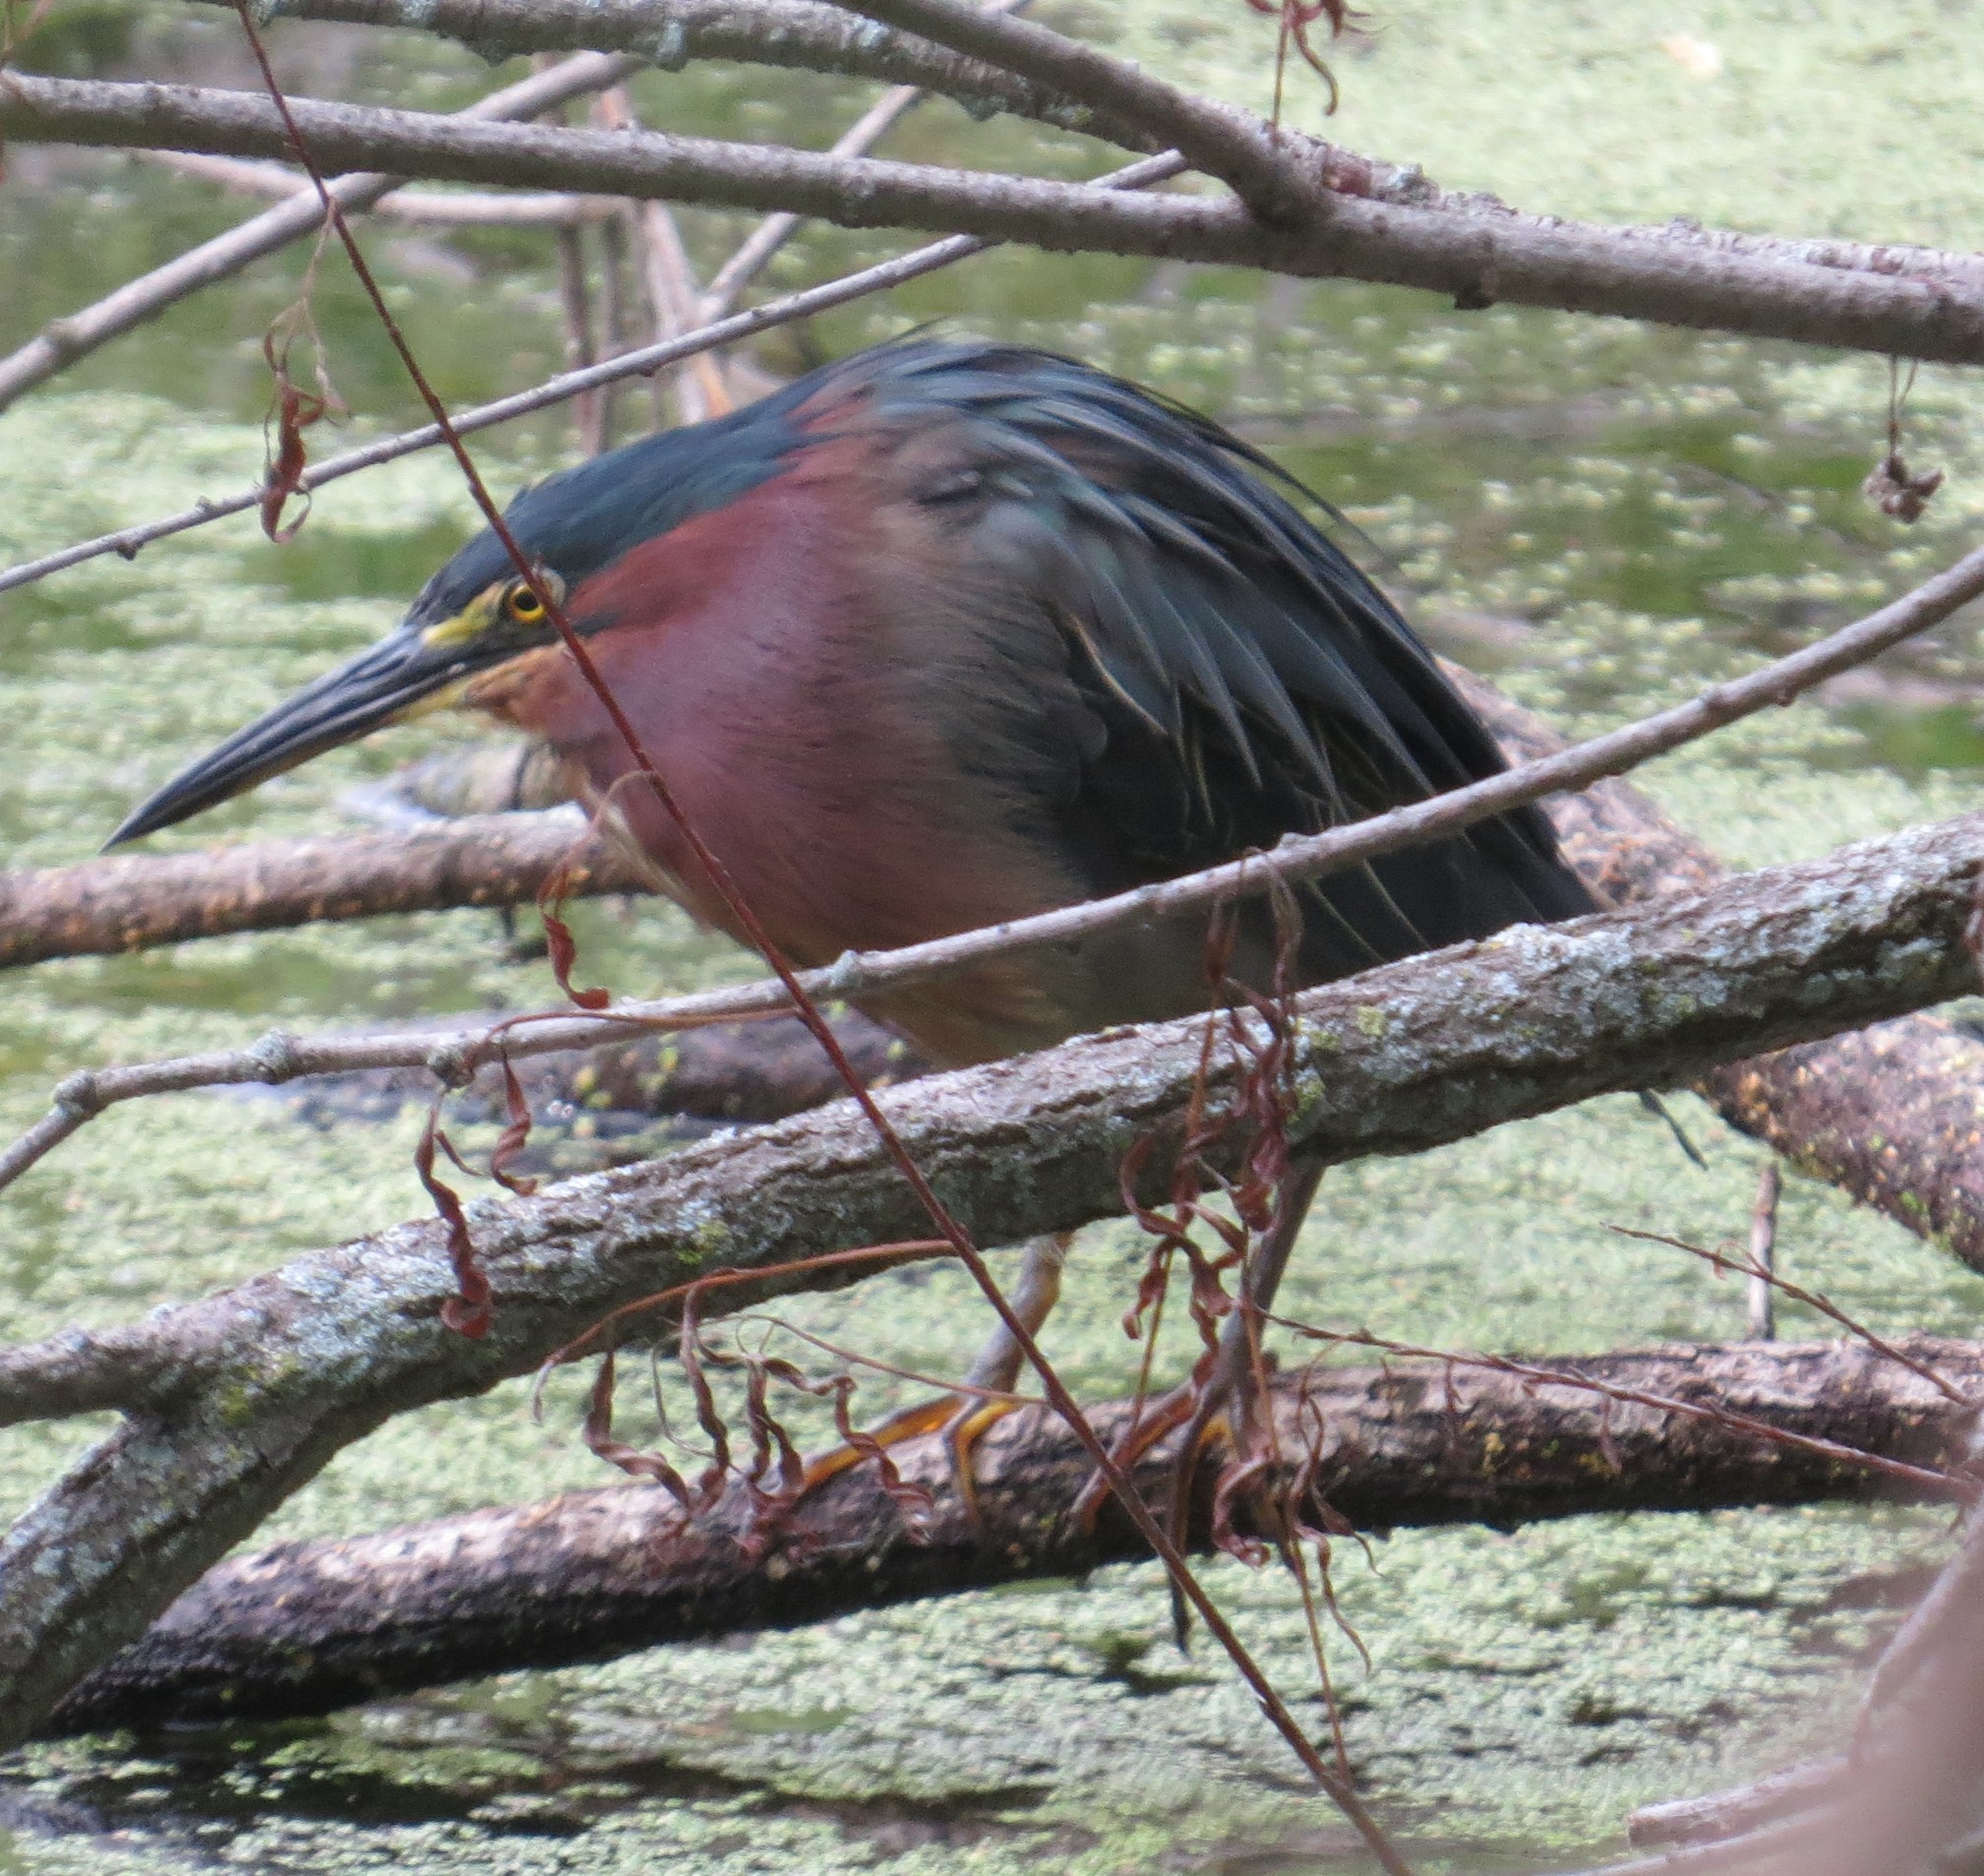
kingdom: Animalia
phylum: Chordata
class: Aves
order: Pelecaniformes
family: Ardeidae
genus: Butorides
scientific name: Butorides virescens
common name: Green heron
